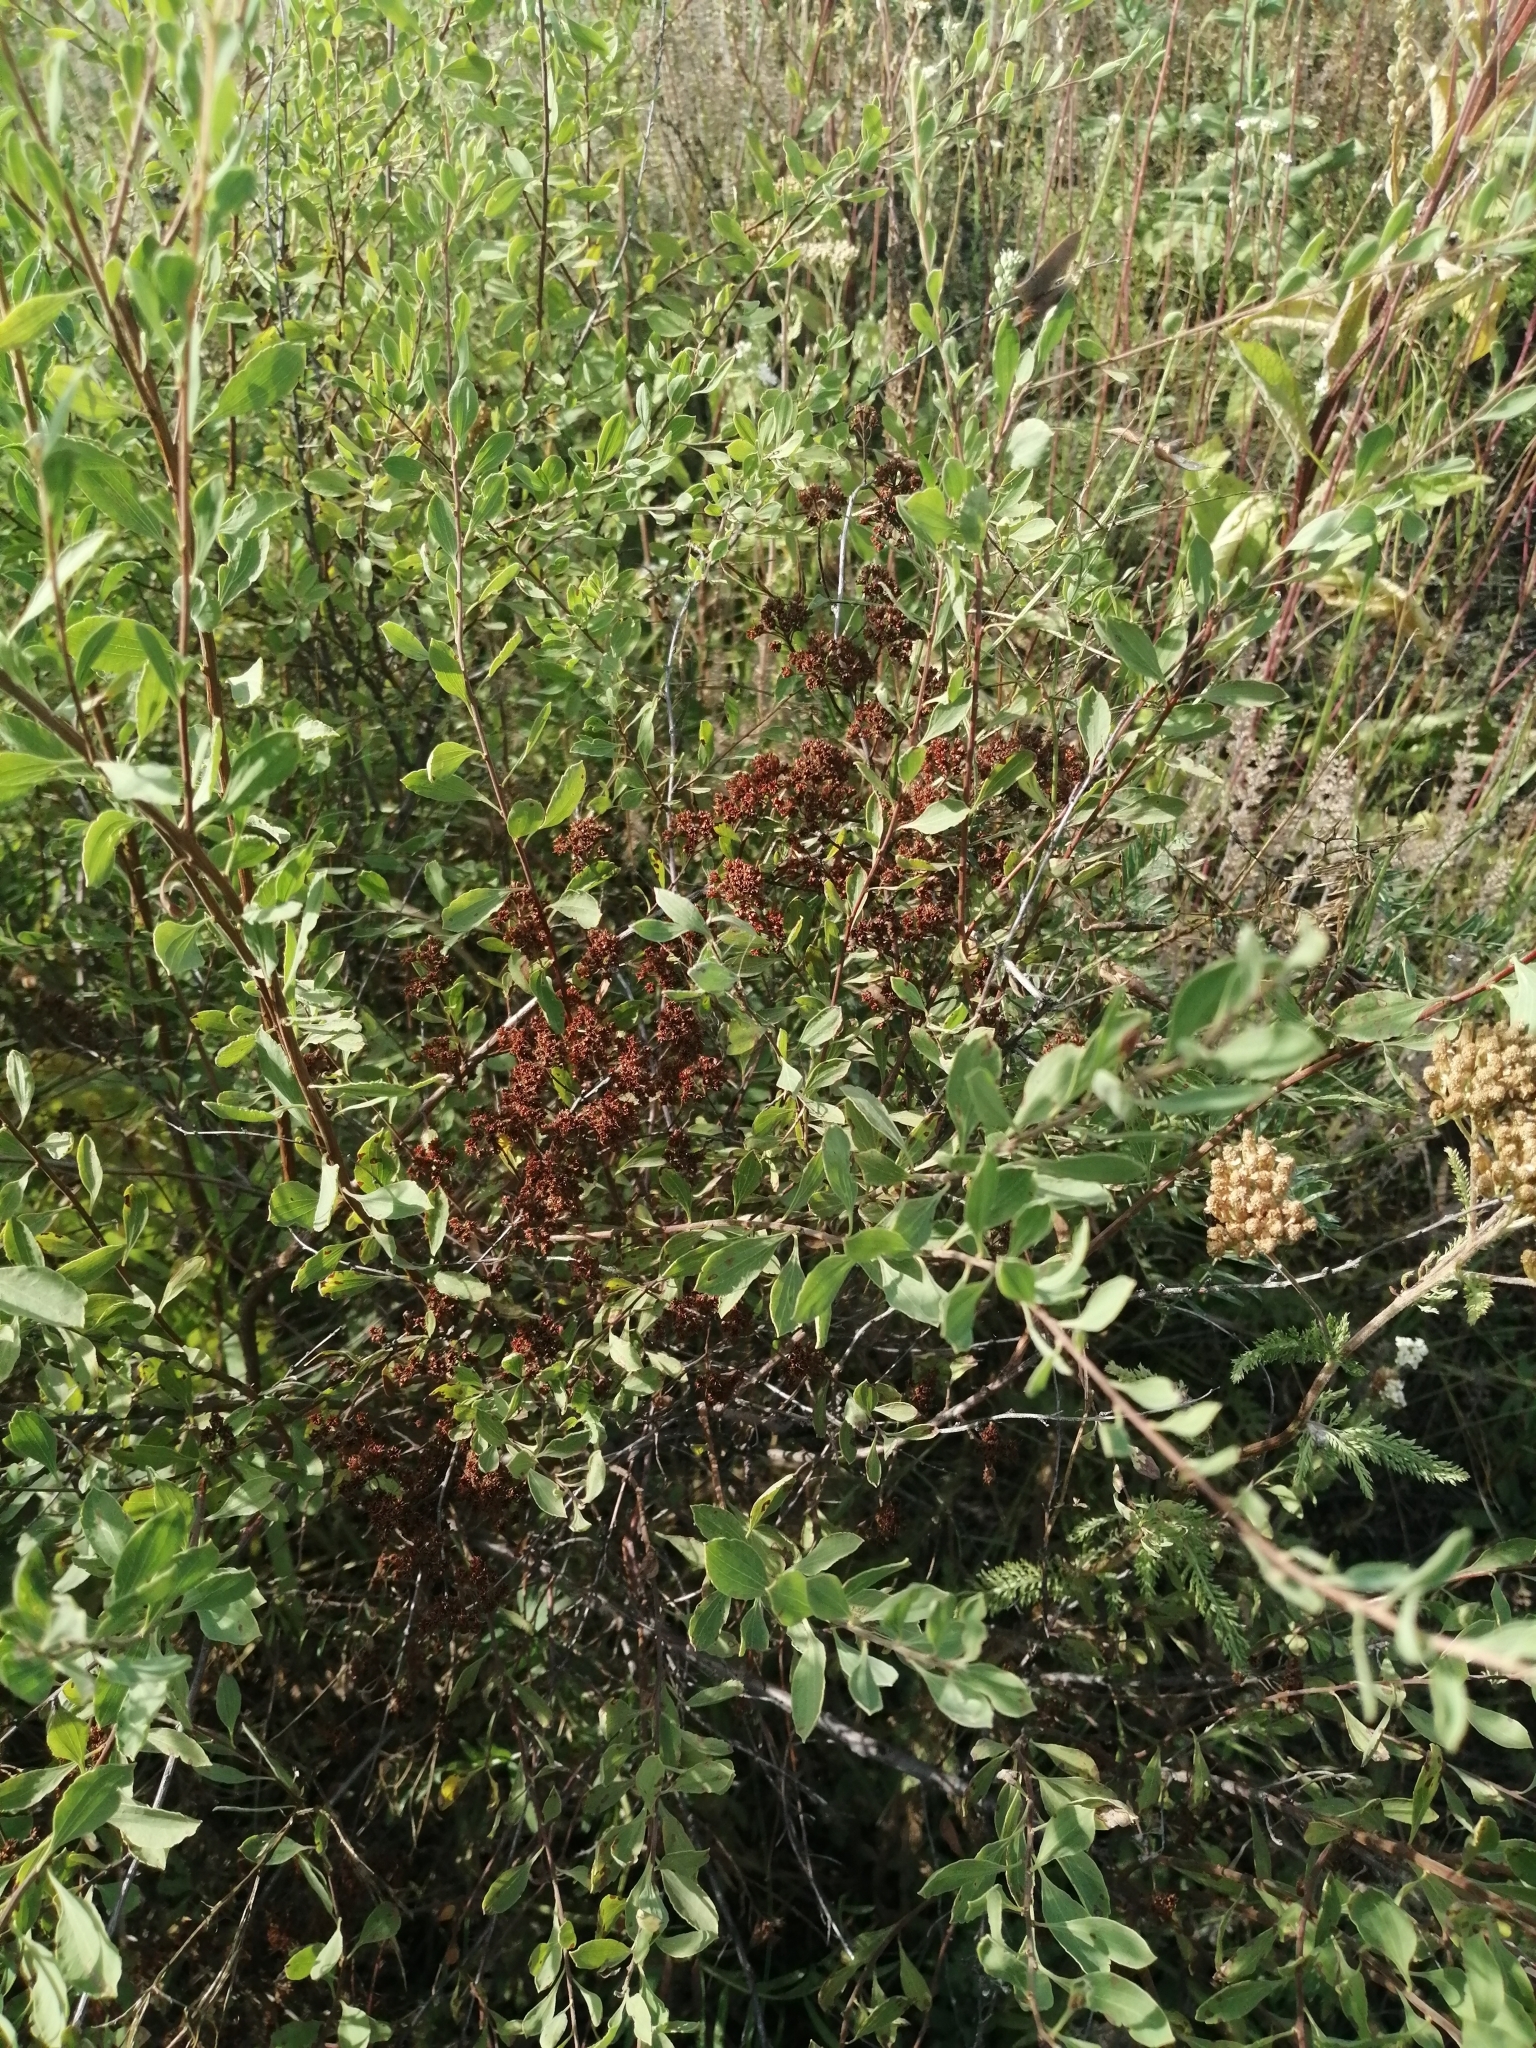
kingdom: Plantae
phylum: Tracheophyta
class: Magnoliopsida
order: Rosales
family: Rosaceae
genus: Spiraea
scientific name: Spiraea crenata
